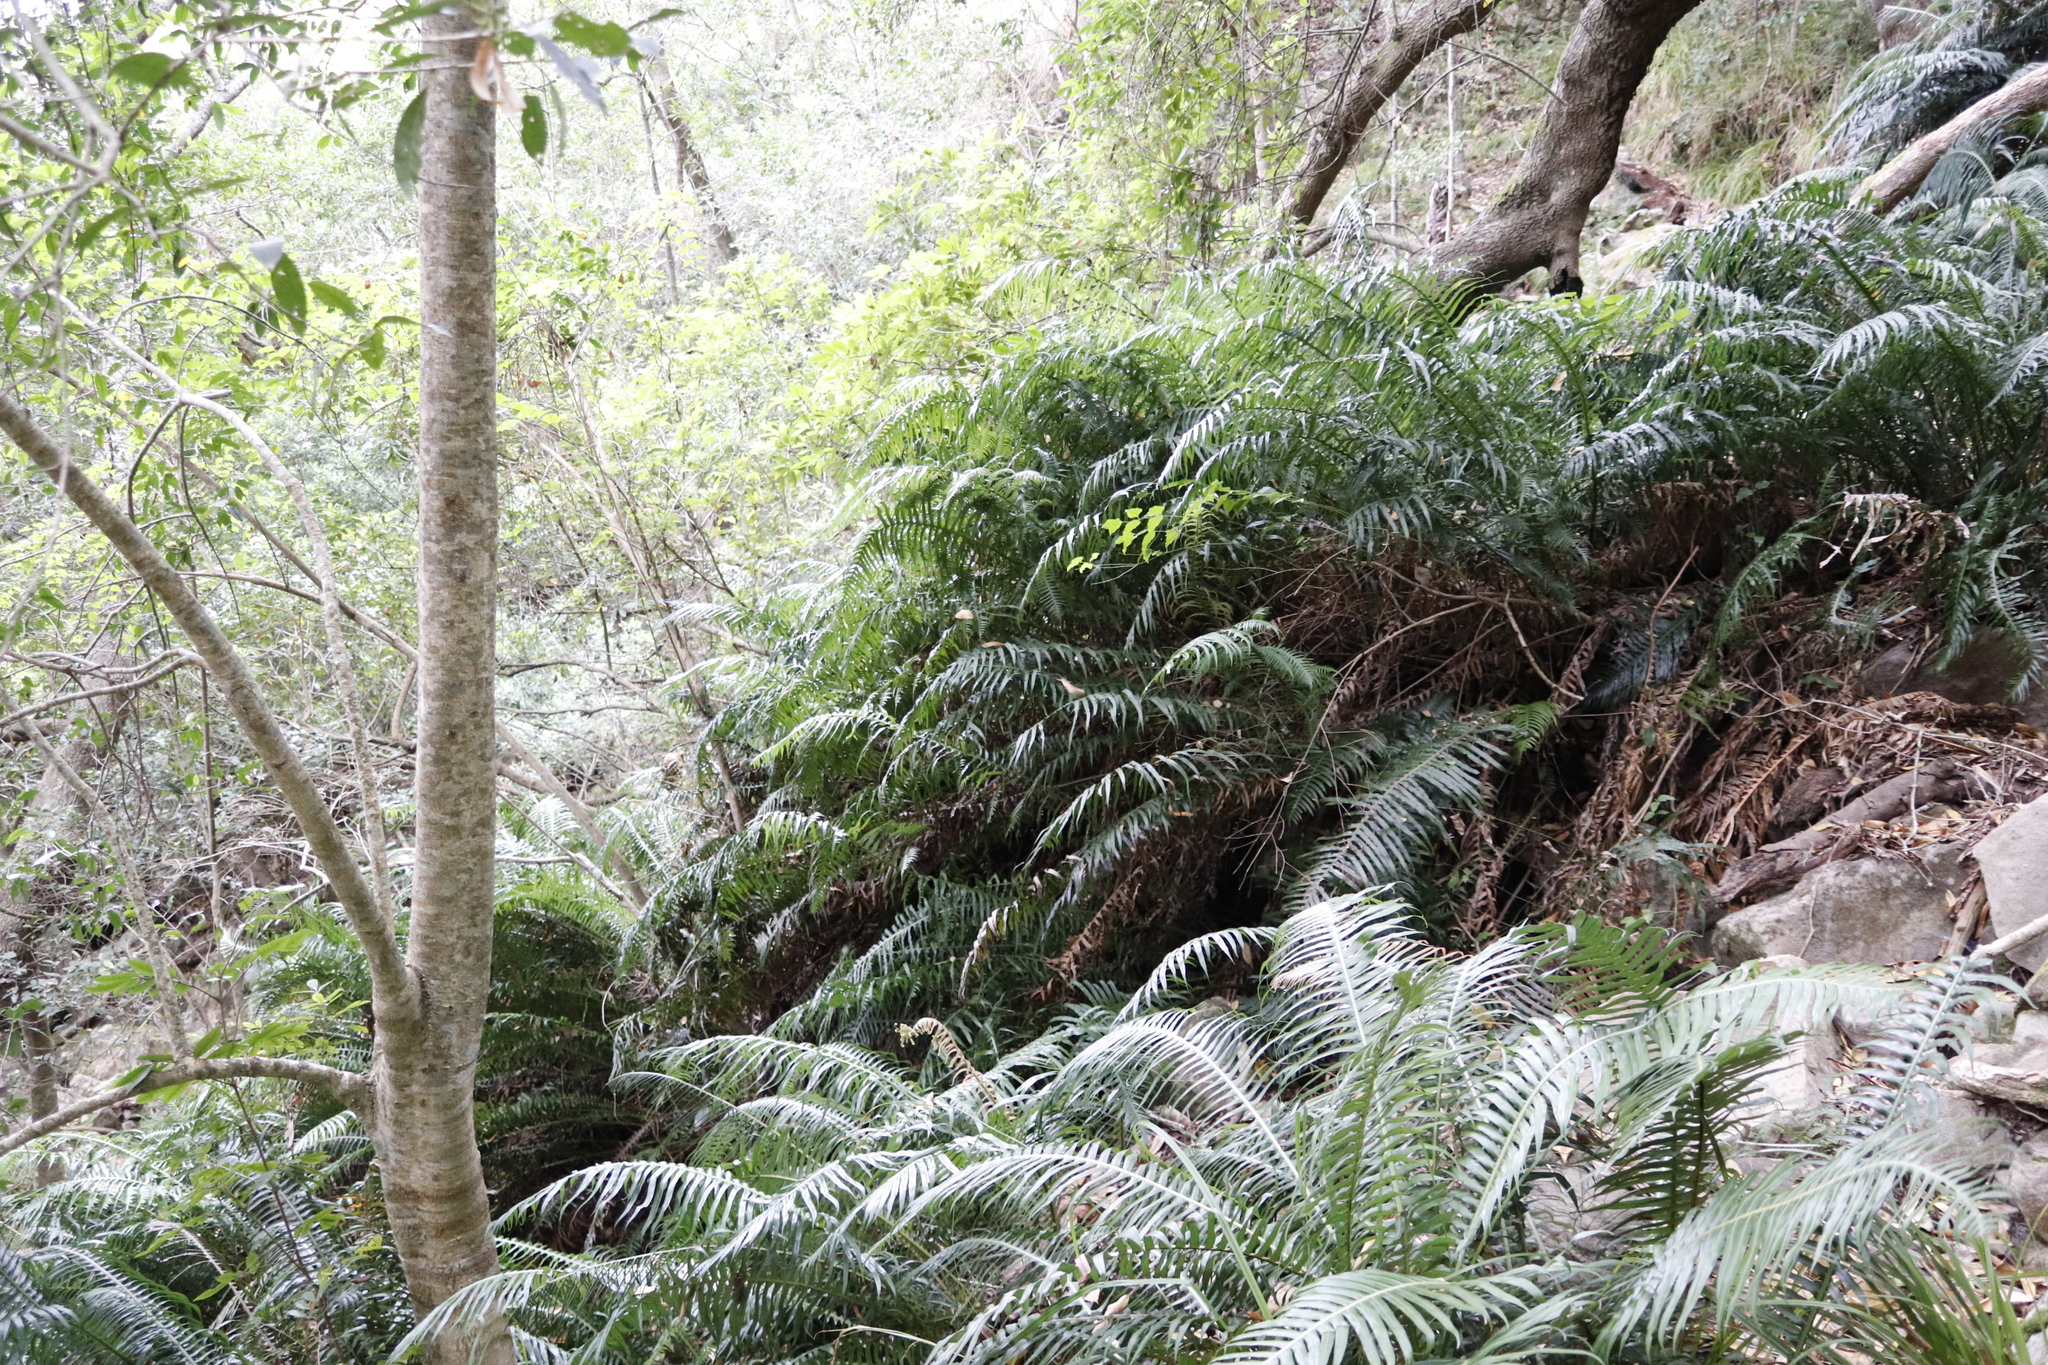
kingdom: Plantae
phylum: Tracheophyta
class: Polypodiopsida
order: Polypodiales
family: Blechnaceae
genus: Lomaridium
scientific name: Lomaridium attenuatum
